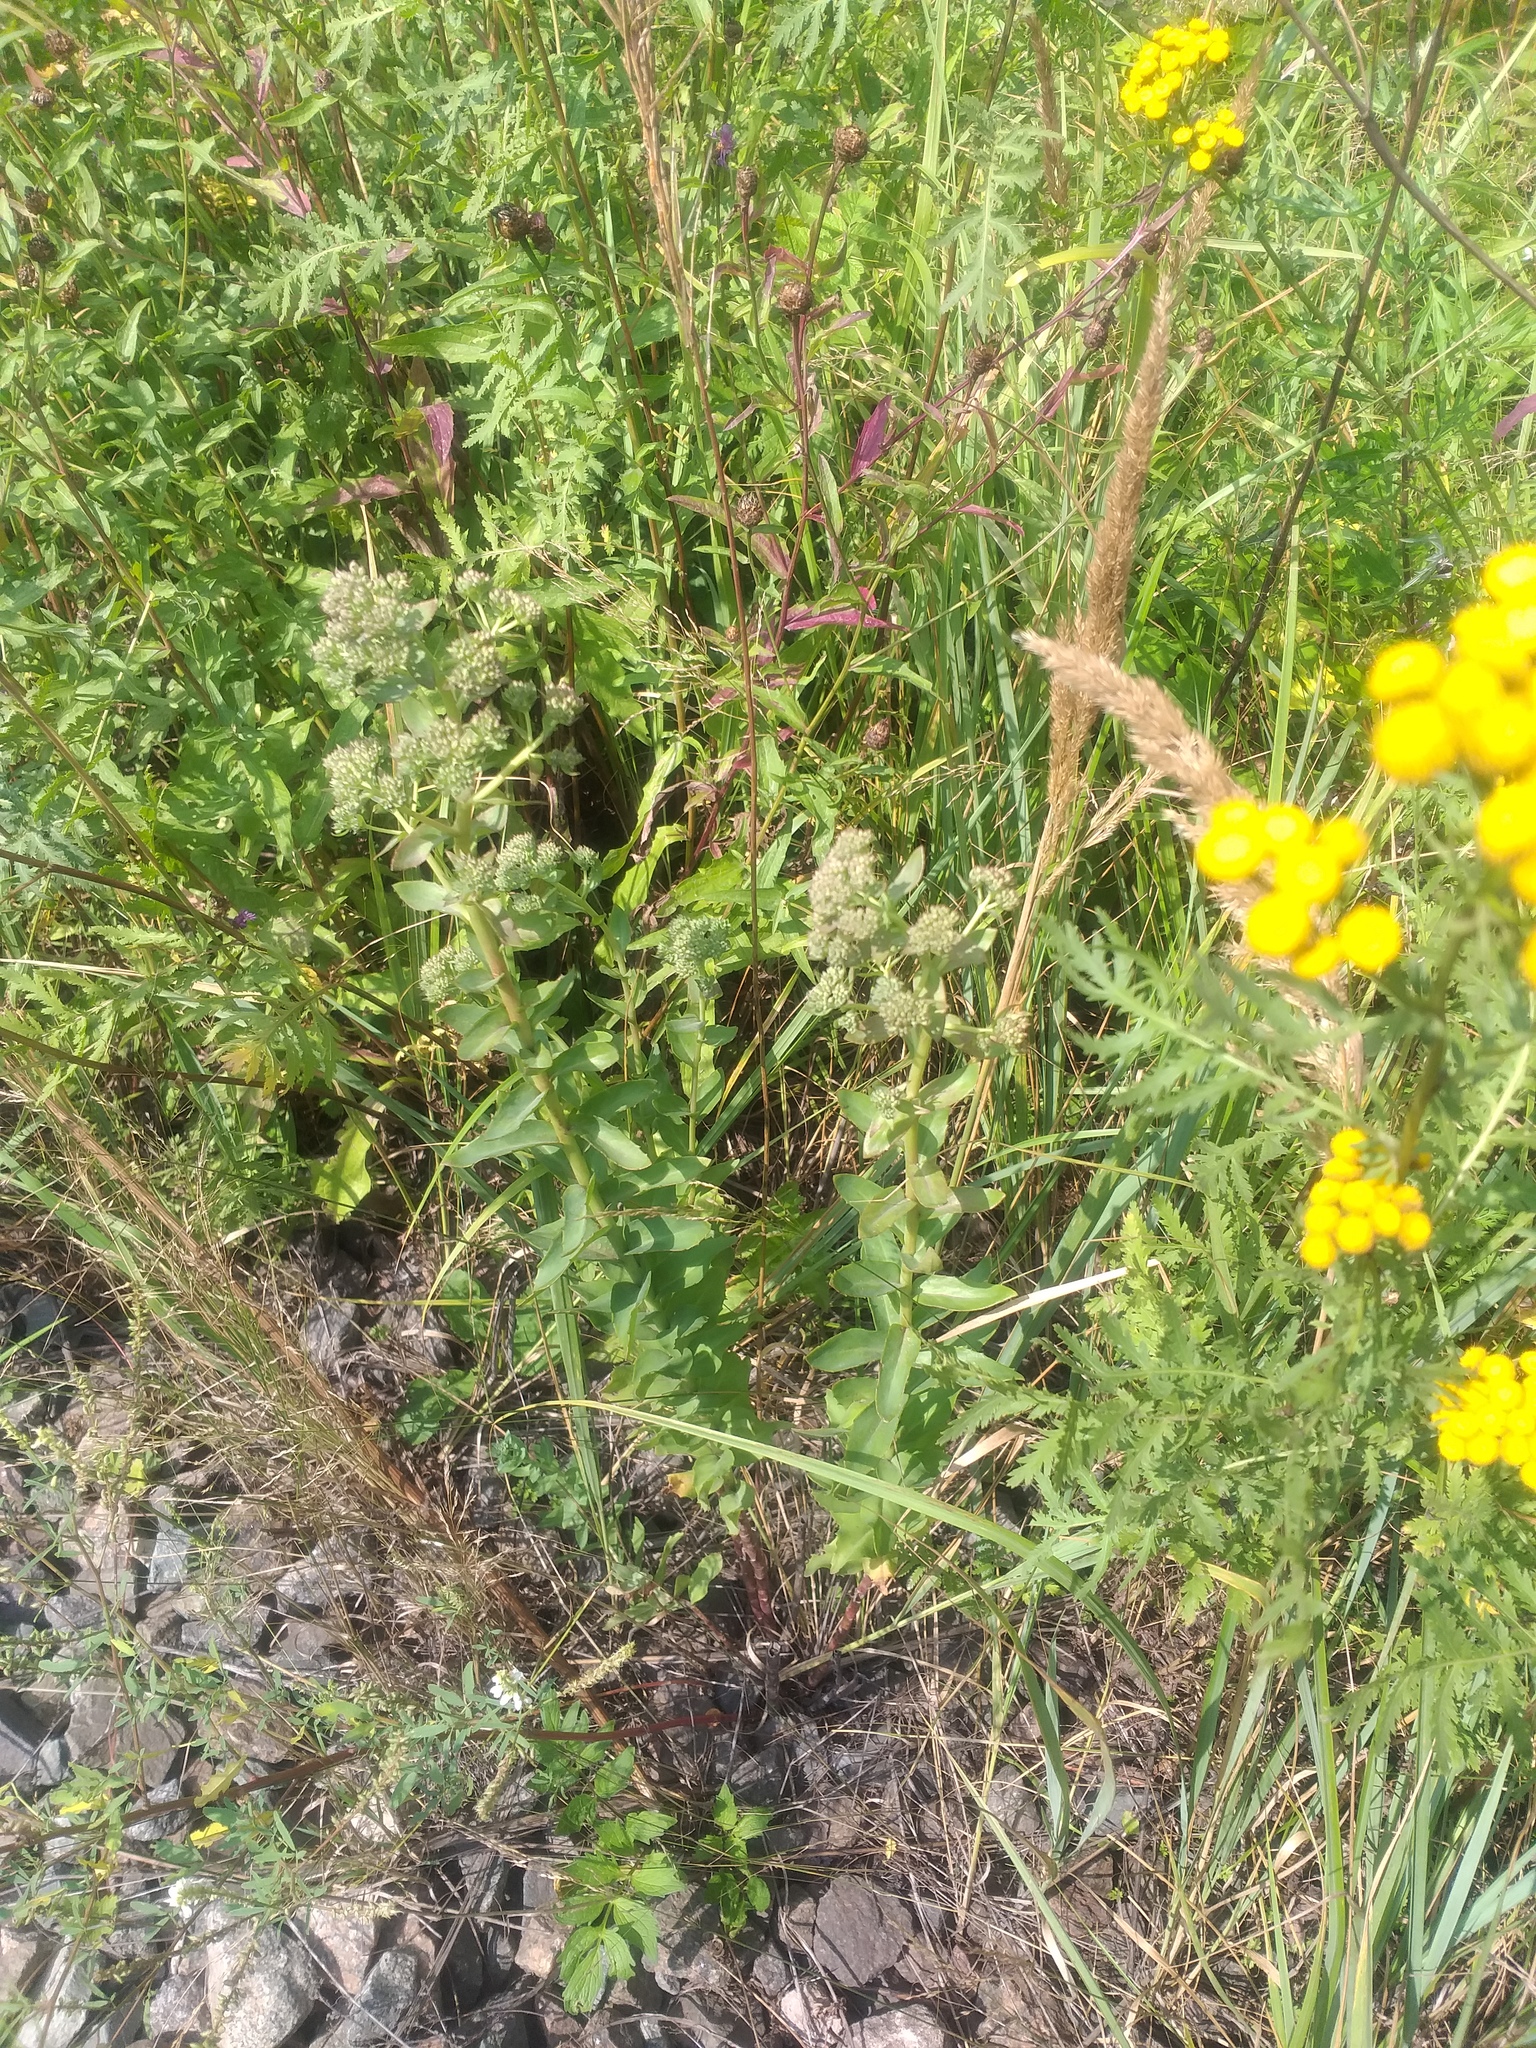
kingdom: Plantae
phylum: Tracheophyta
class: Magnoliopsida
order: Saxifragales
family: Crassulaceae
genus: Hylotelephium
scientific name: Hylotelephium telephium
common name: Live-forever
